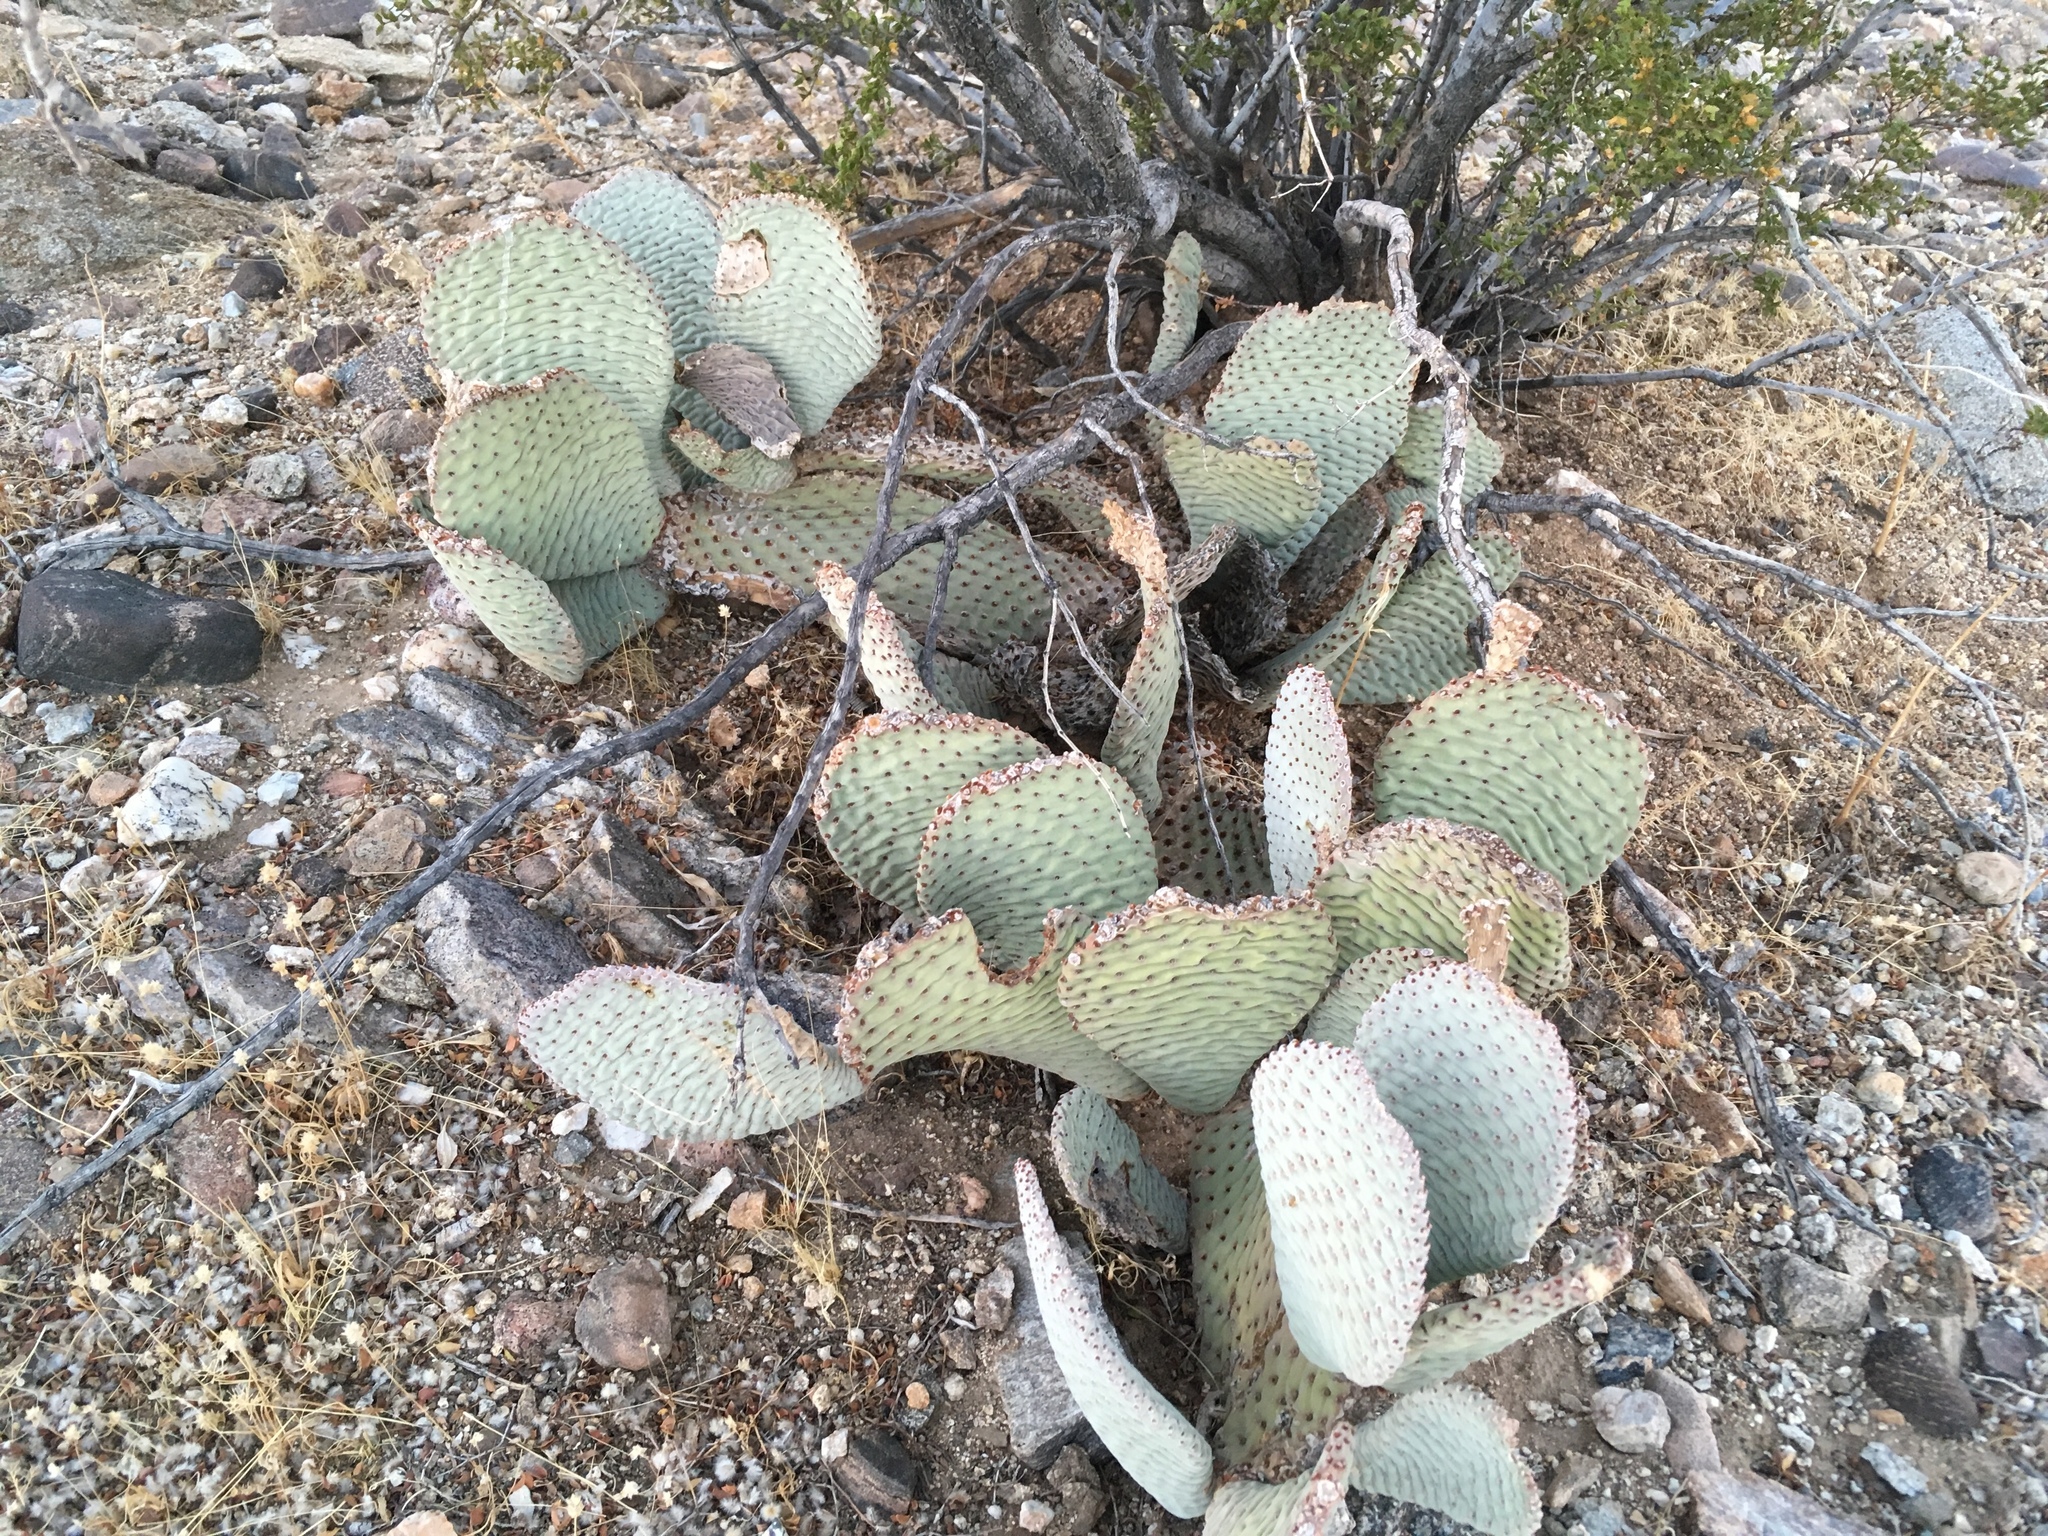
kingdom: Plantae
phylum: Tracheophyta
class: Magnoliopsida
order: Caryophyllales
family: Cactaceae
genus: Opuntia
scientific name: Opuntia basilaris
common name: Beavertail prickly-pear
